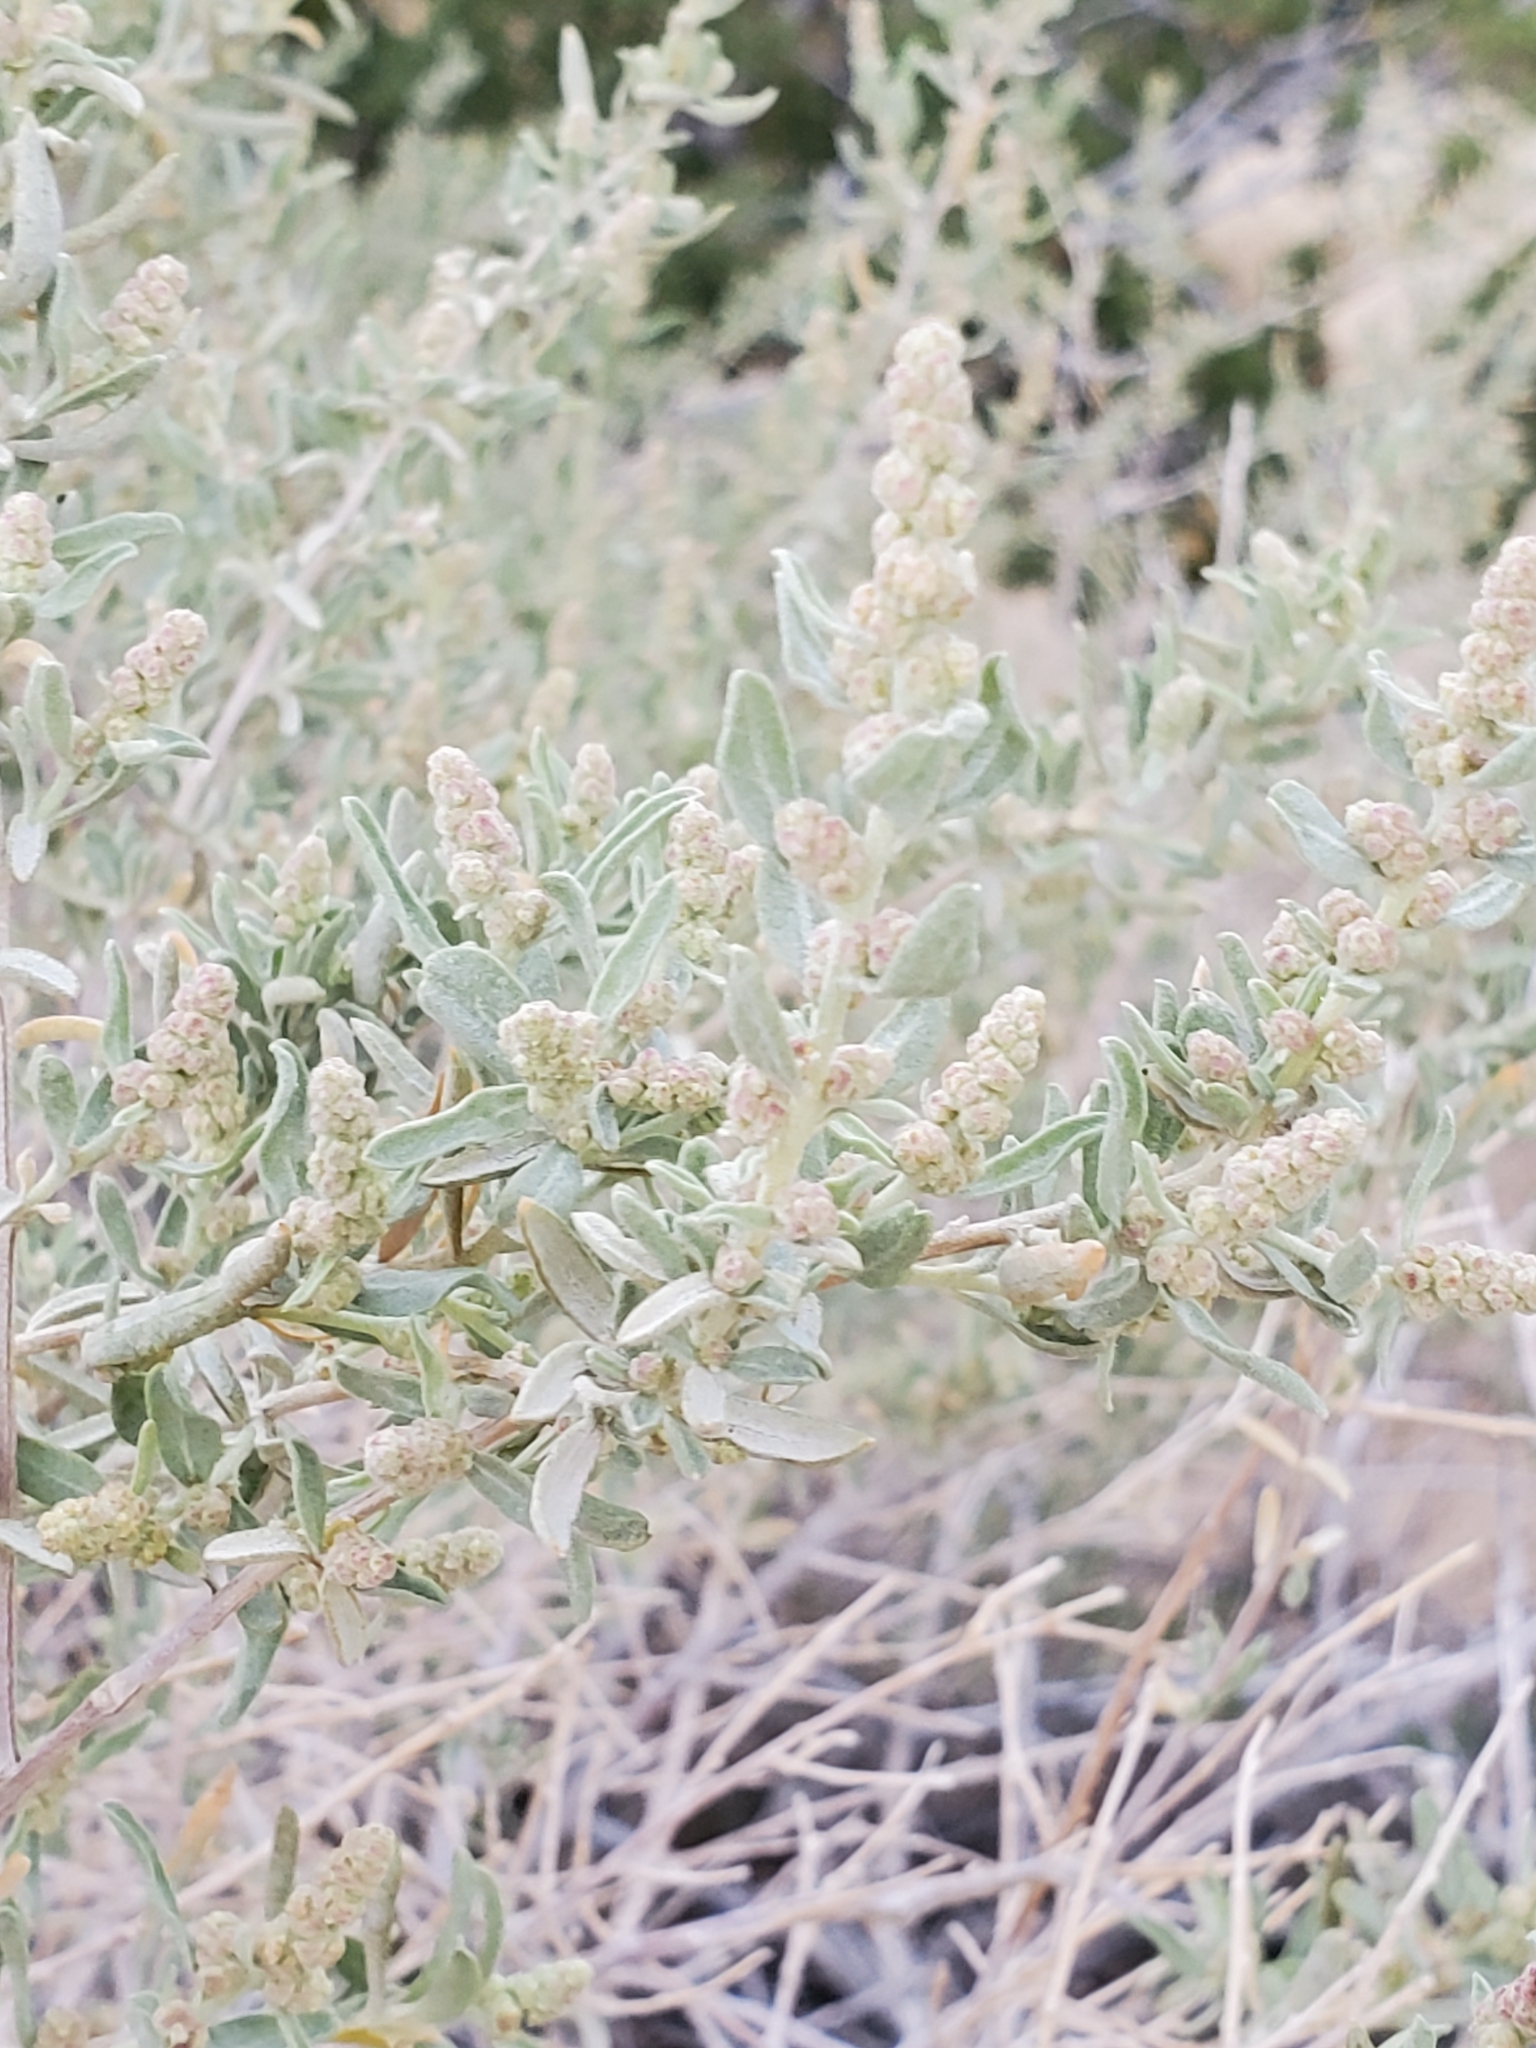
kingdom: Plantae
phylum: Tracheophyta
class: Magnoliopsida
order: Caryophyllales
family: Amaranthaceae
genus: Atriplex
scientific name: Atriplex canescens
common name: Four-wing saltbush
